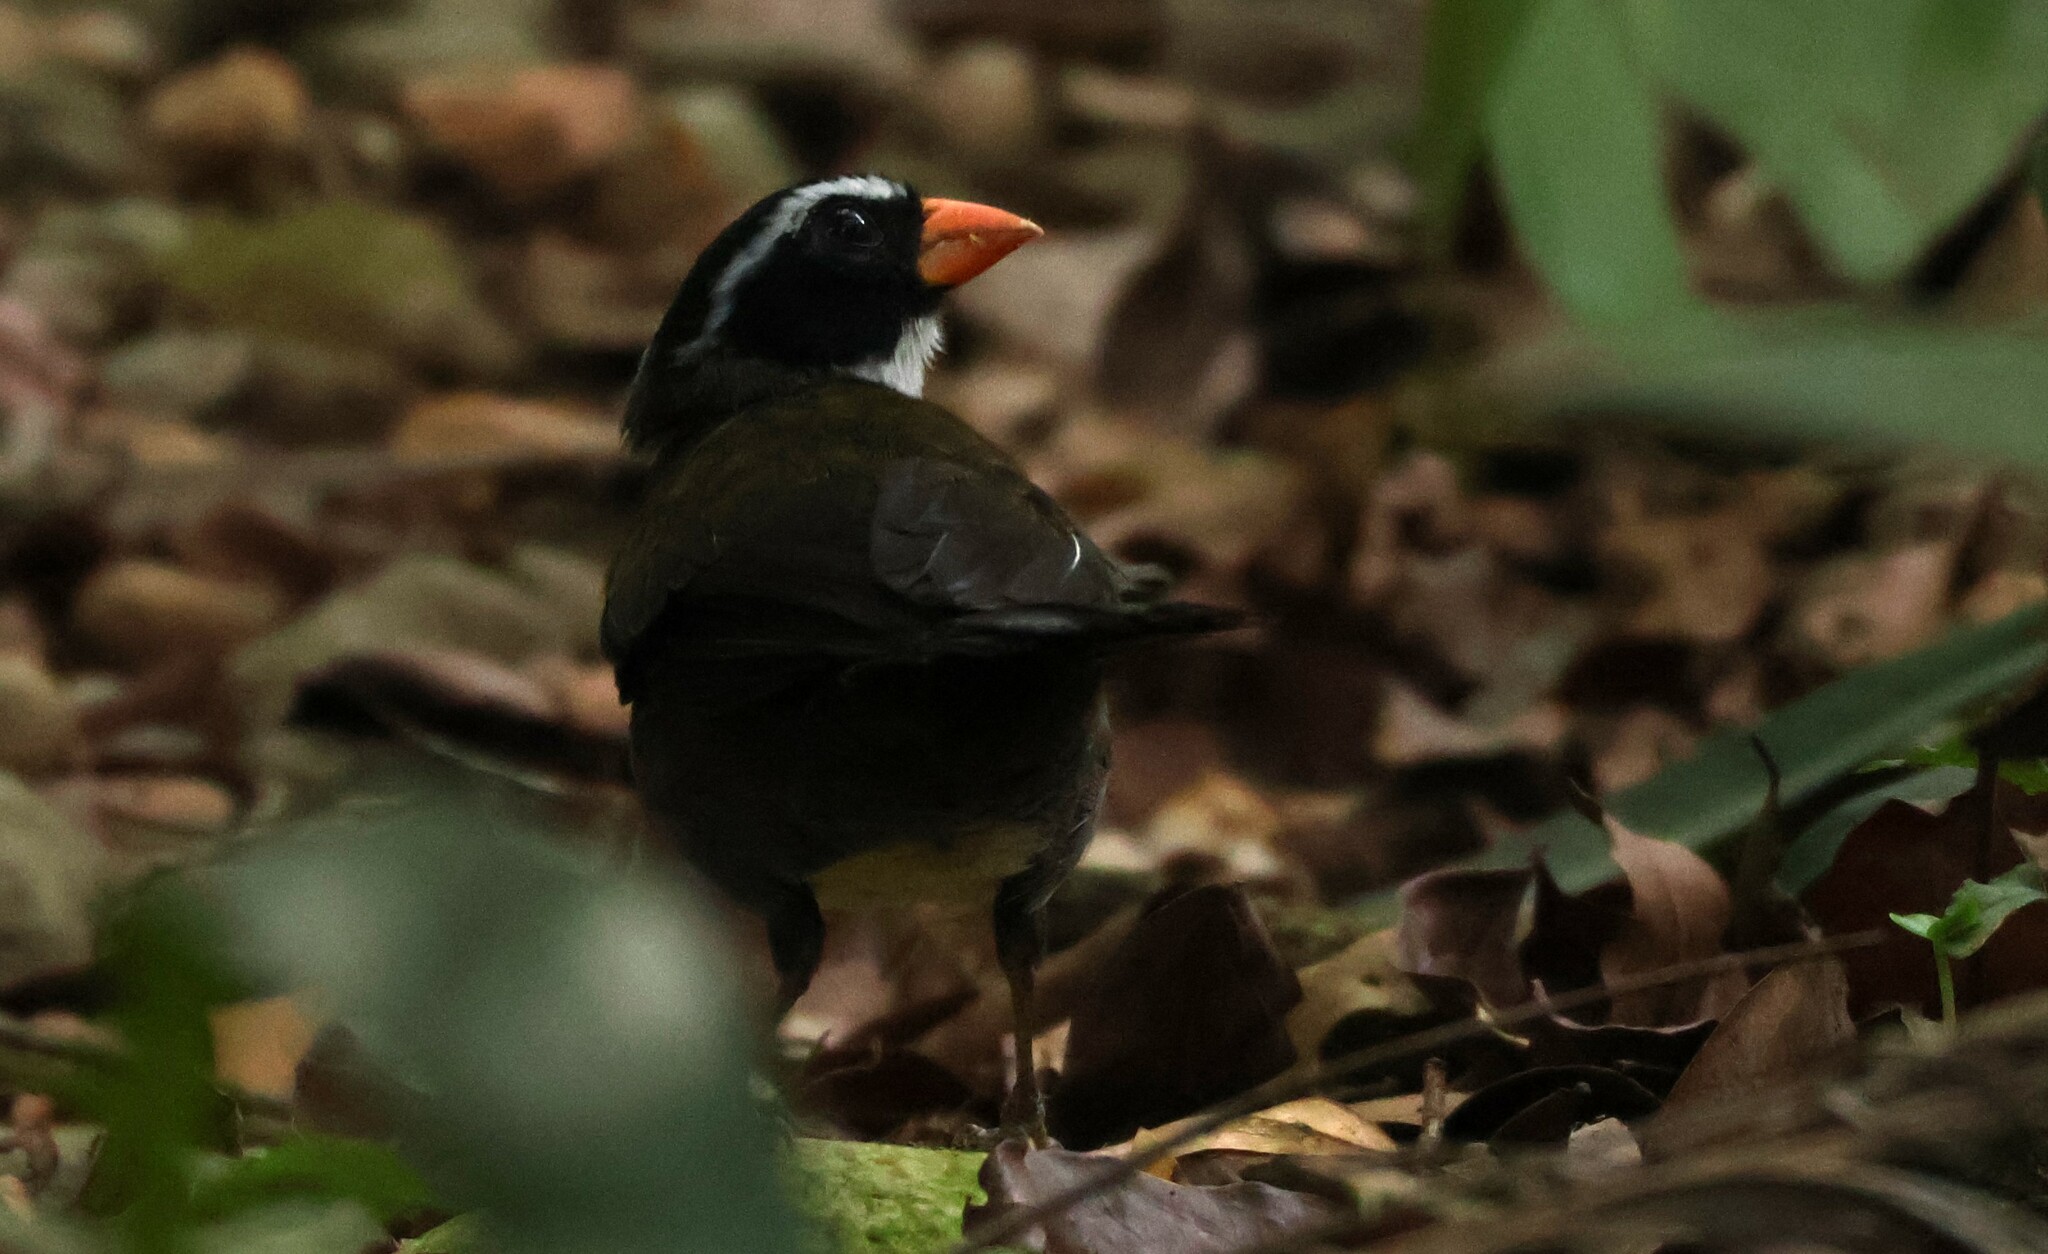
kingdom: Animalia
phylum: Chordata
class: Aves
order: Passeriformes
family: Passerellidae
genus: Arremon
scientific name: Arremon aurantiirostris
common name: Orange-billed sparrow
